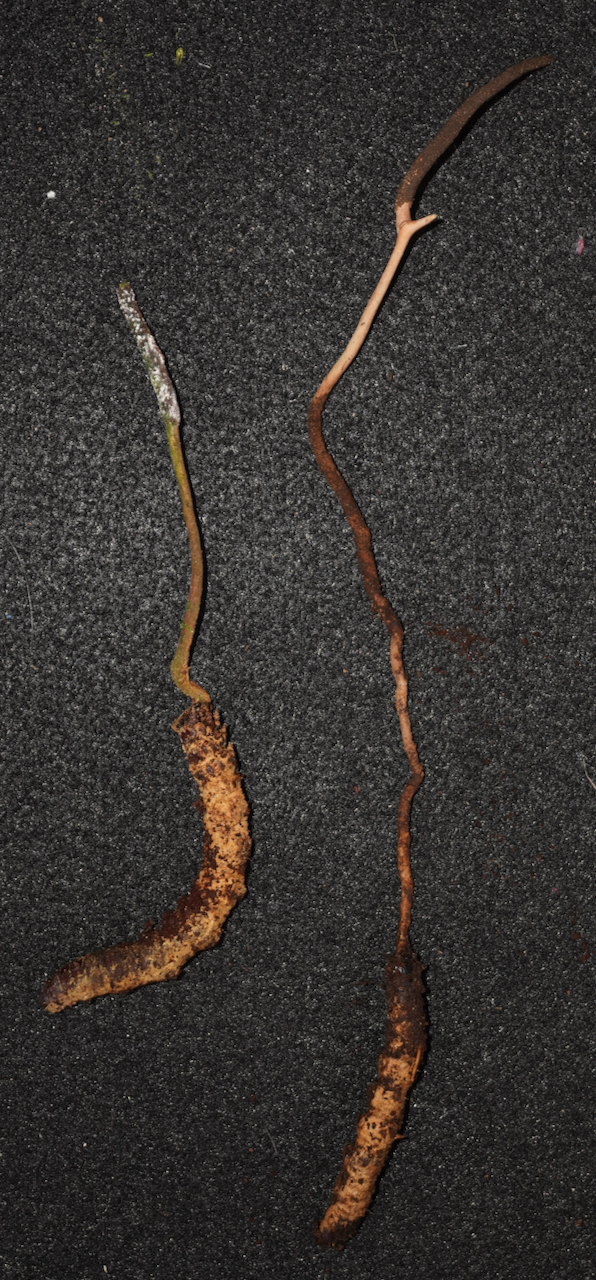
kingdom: Fungi
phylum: Ascomycota
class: Sordariomycetes
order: Hypocreales
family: Ophiocordycipitaceae
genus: Ophiocordyceps
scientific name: Ophiocordyceps robertsii
